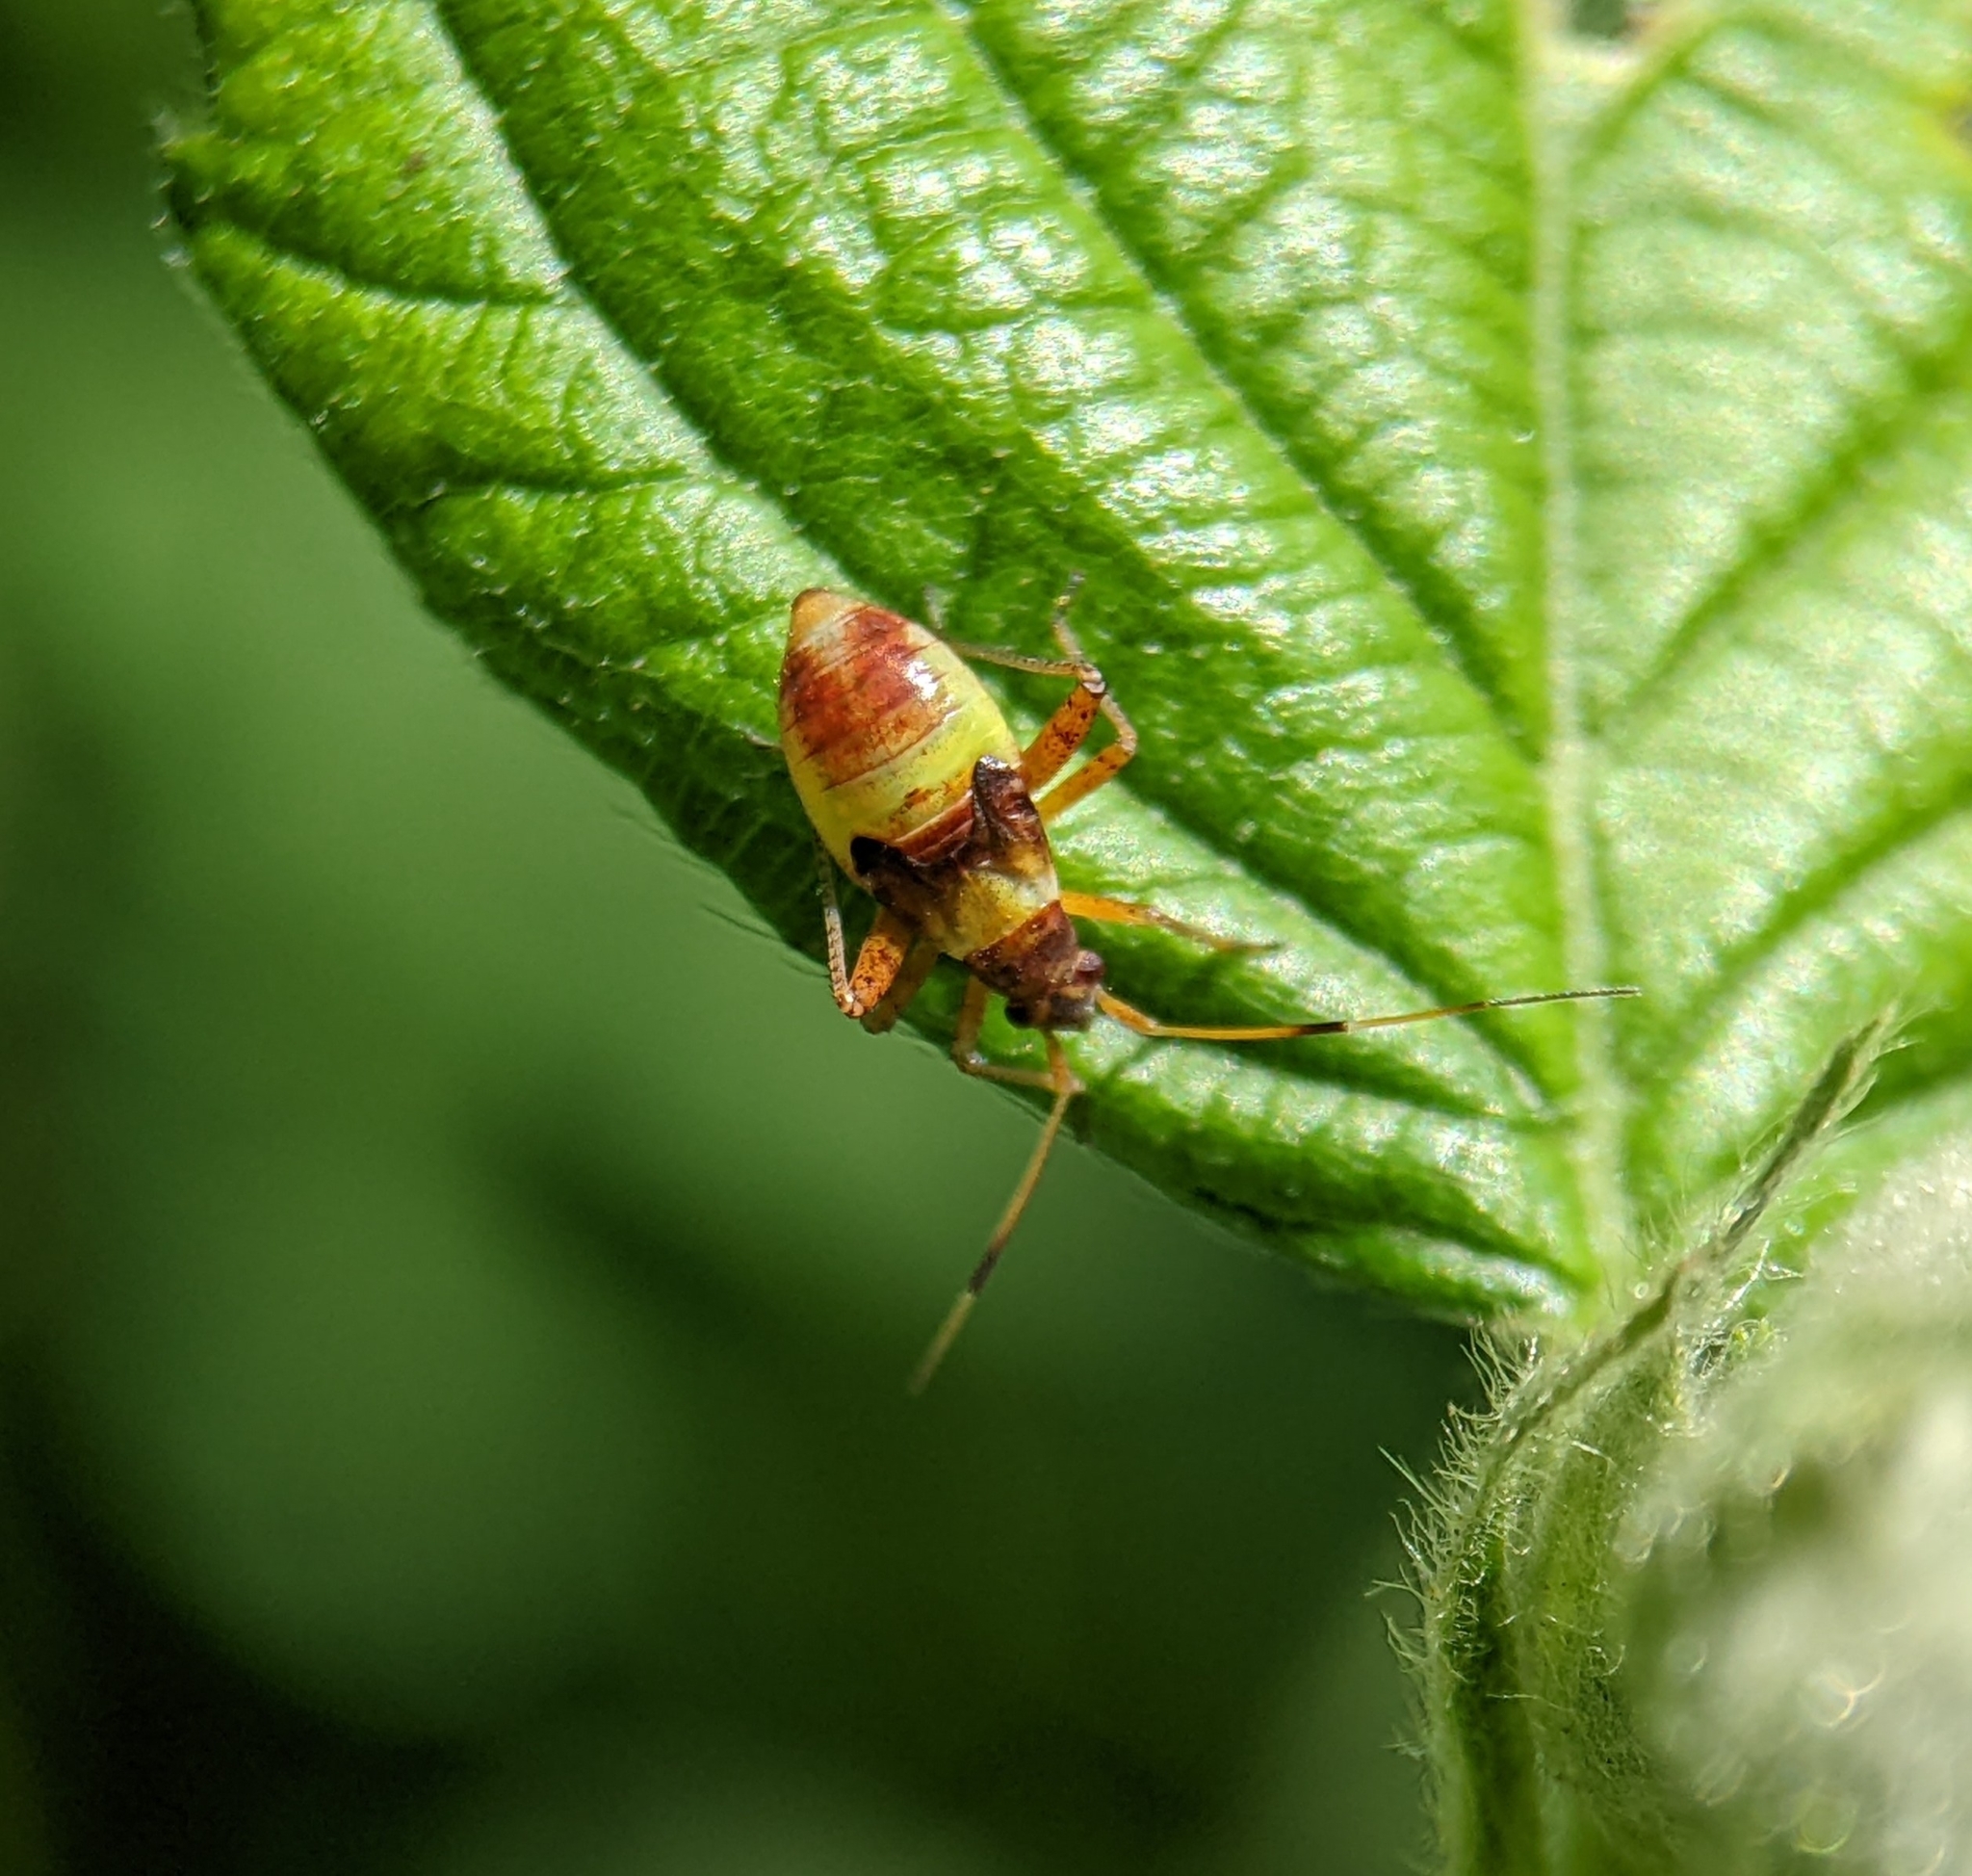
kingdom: Animalia
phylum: Arthropoda
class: Insecta
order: Hemiptera
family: Miridae
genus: Closterotomus
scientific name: Closterotomus fulvomaculatus
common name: Spotted plant bug
